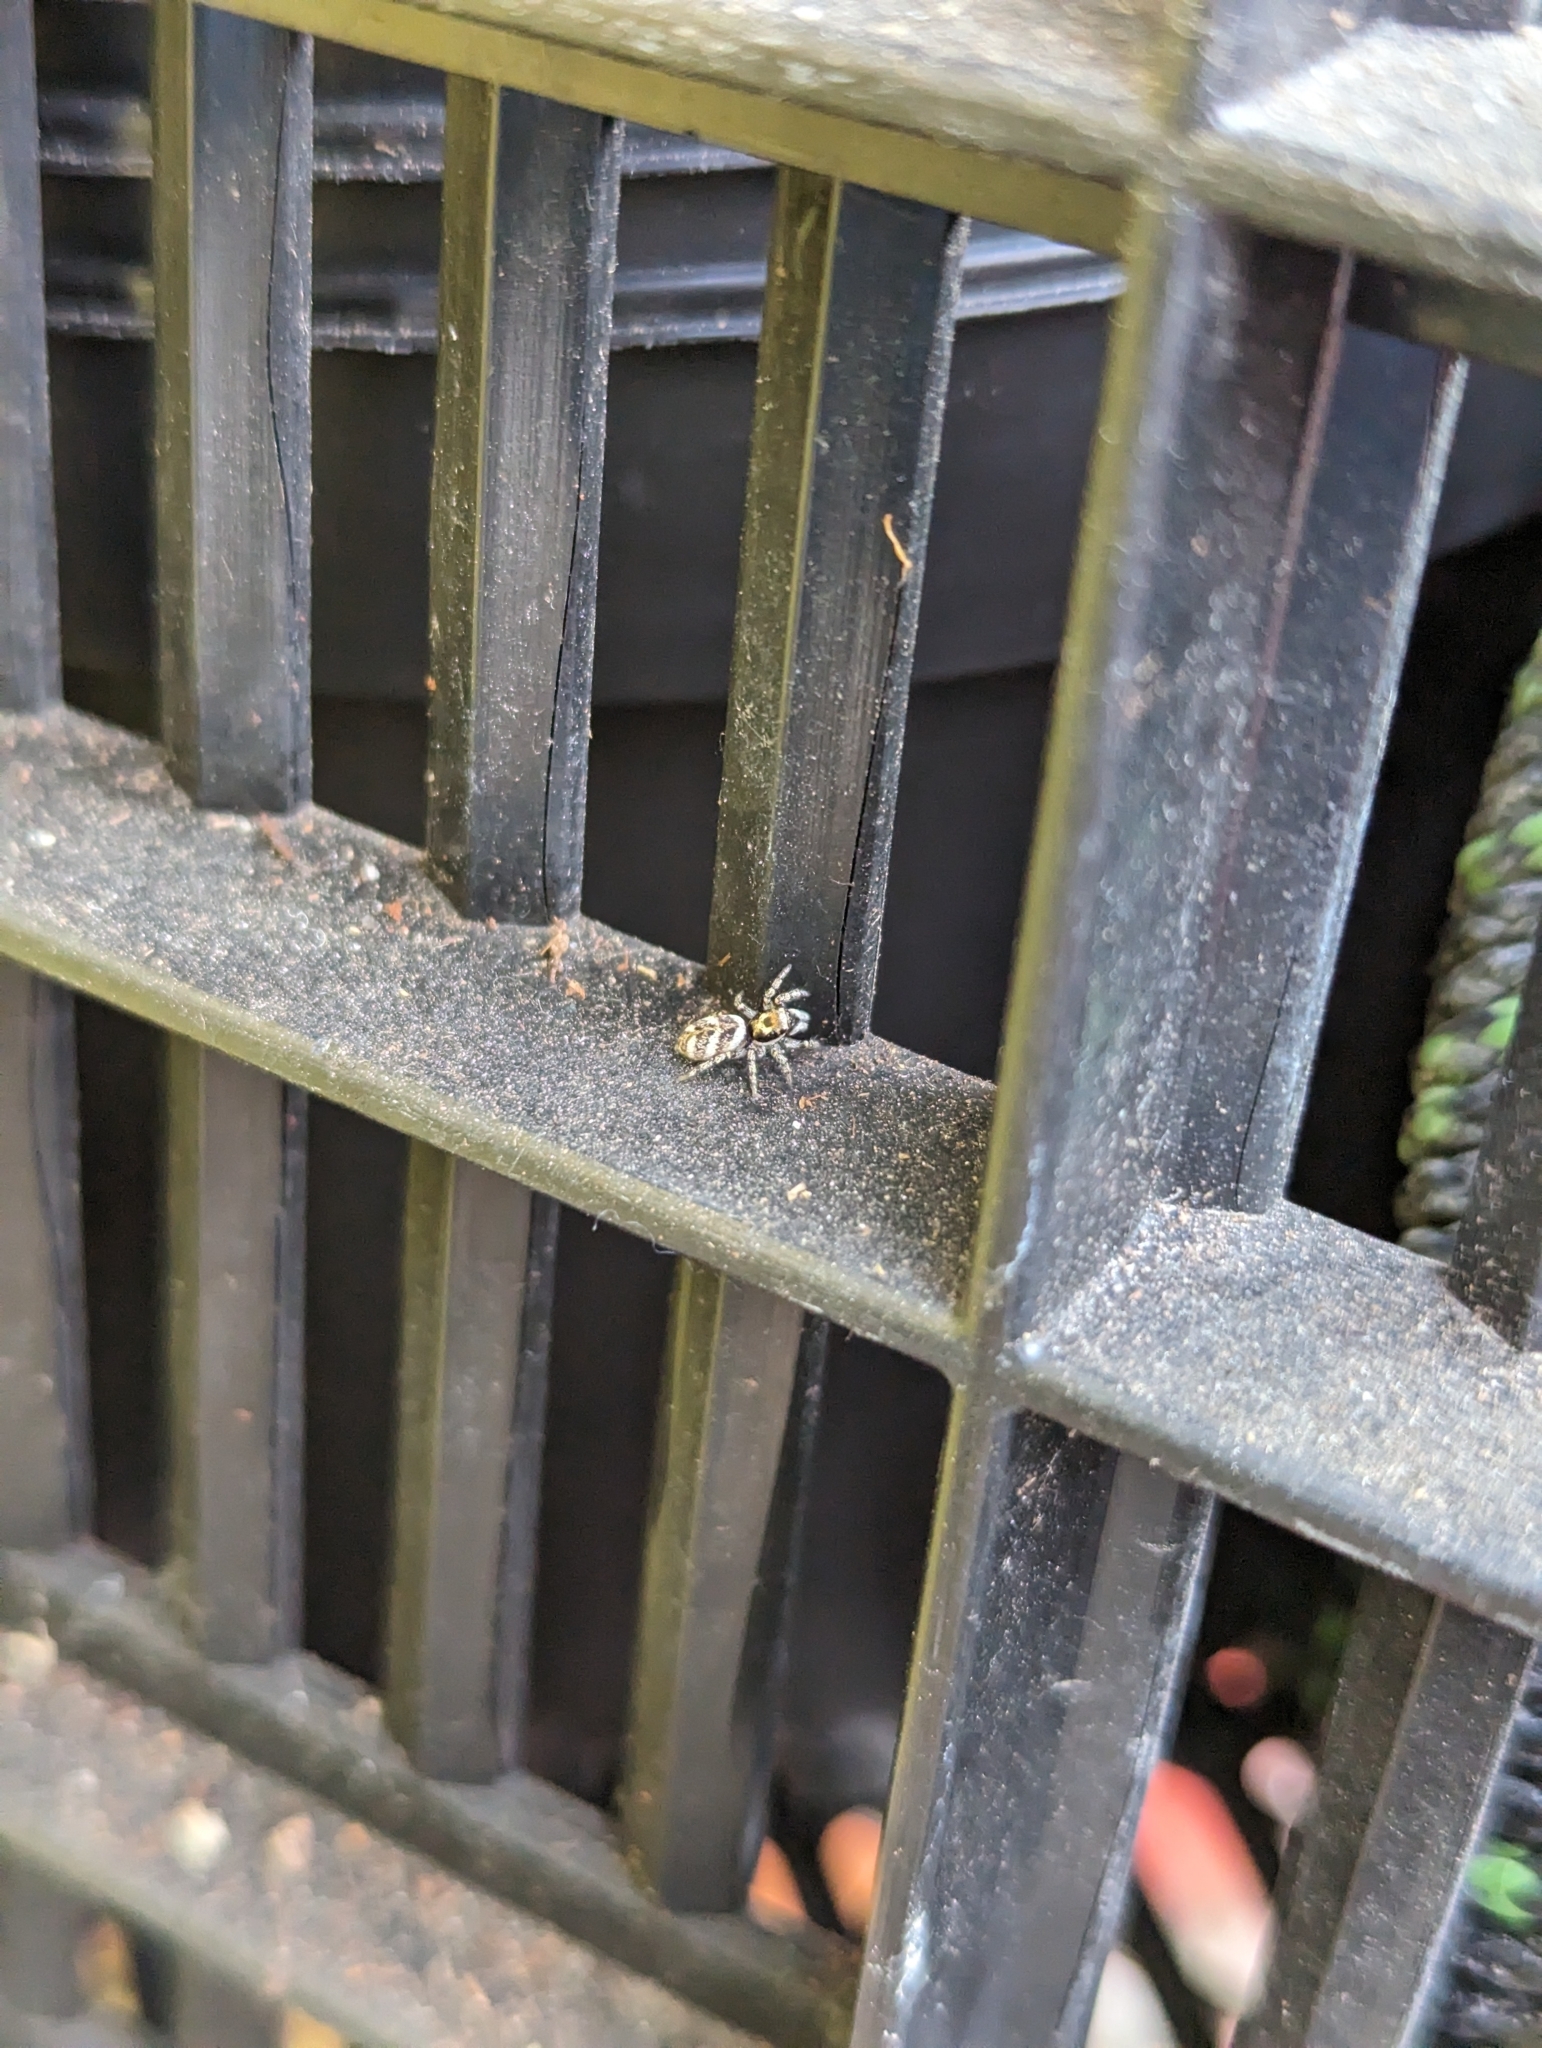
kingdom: Animalia
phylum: Arthropoda
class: Arachnida
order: Araneae
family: Salticidae
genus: Salticus
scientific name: Salticus scenicus
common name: Zebra jumper
